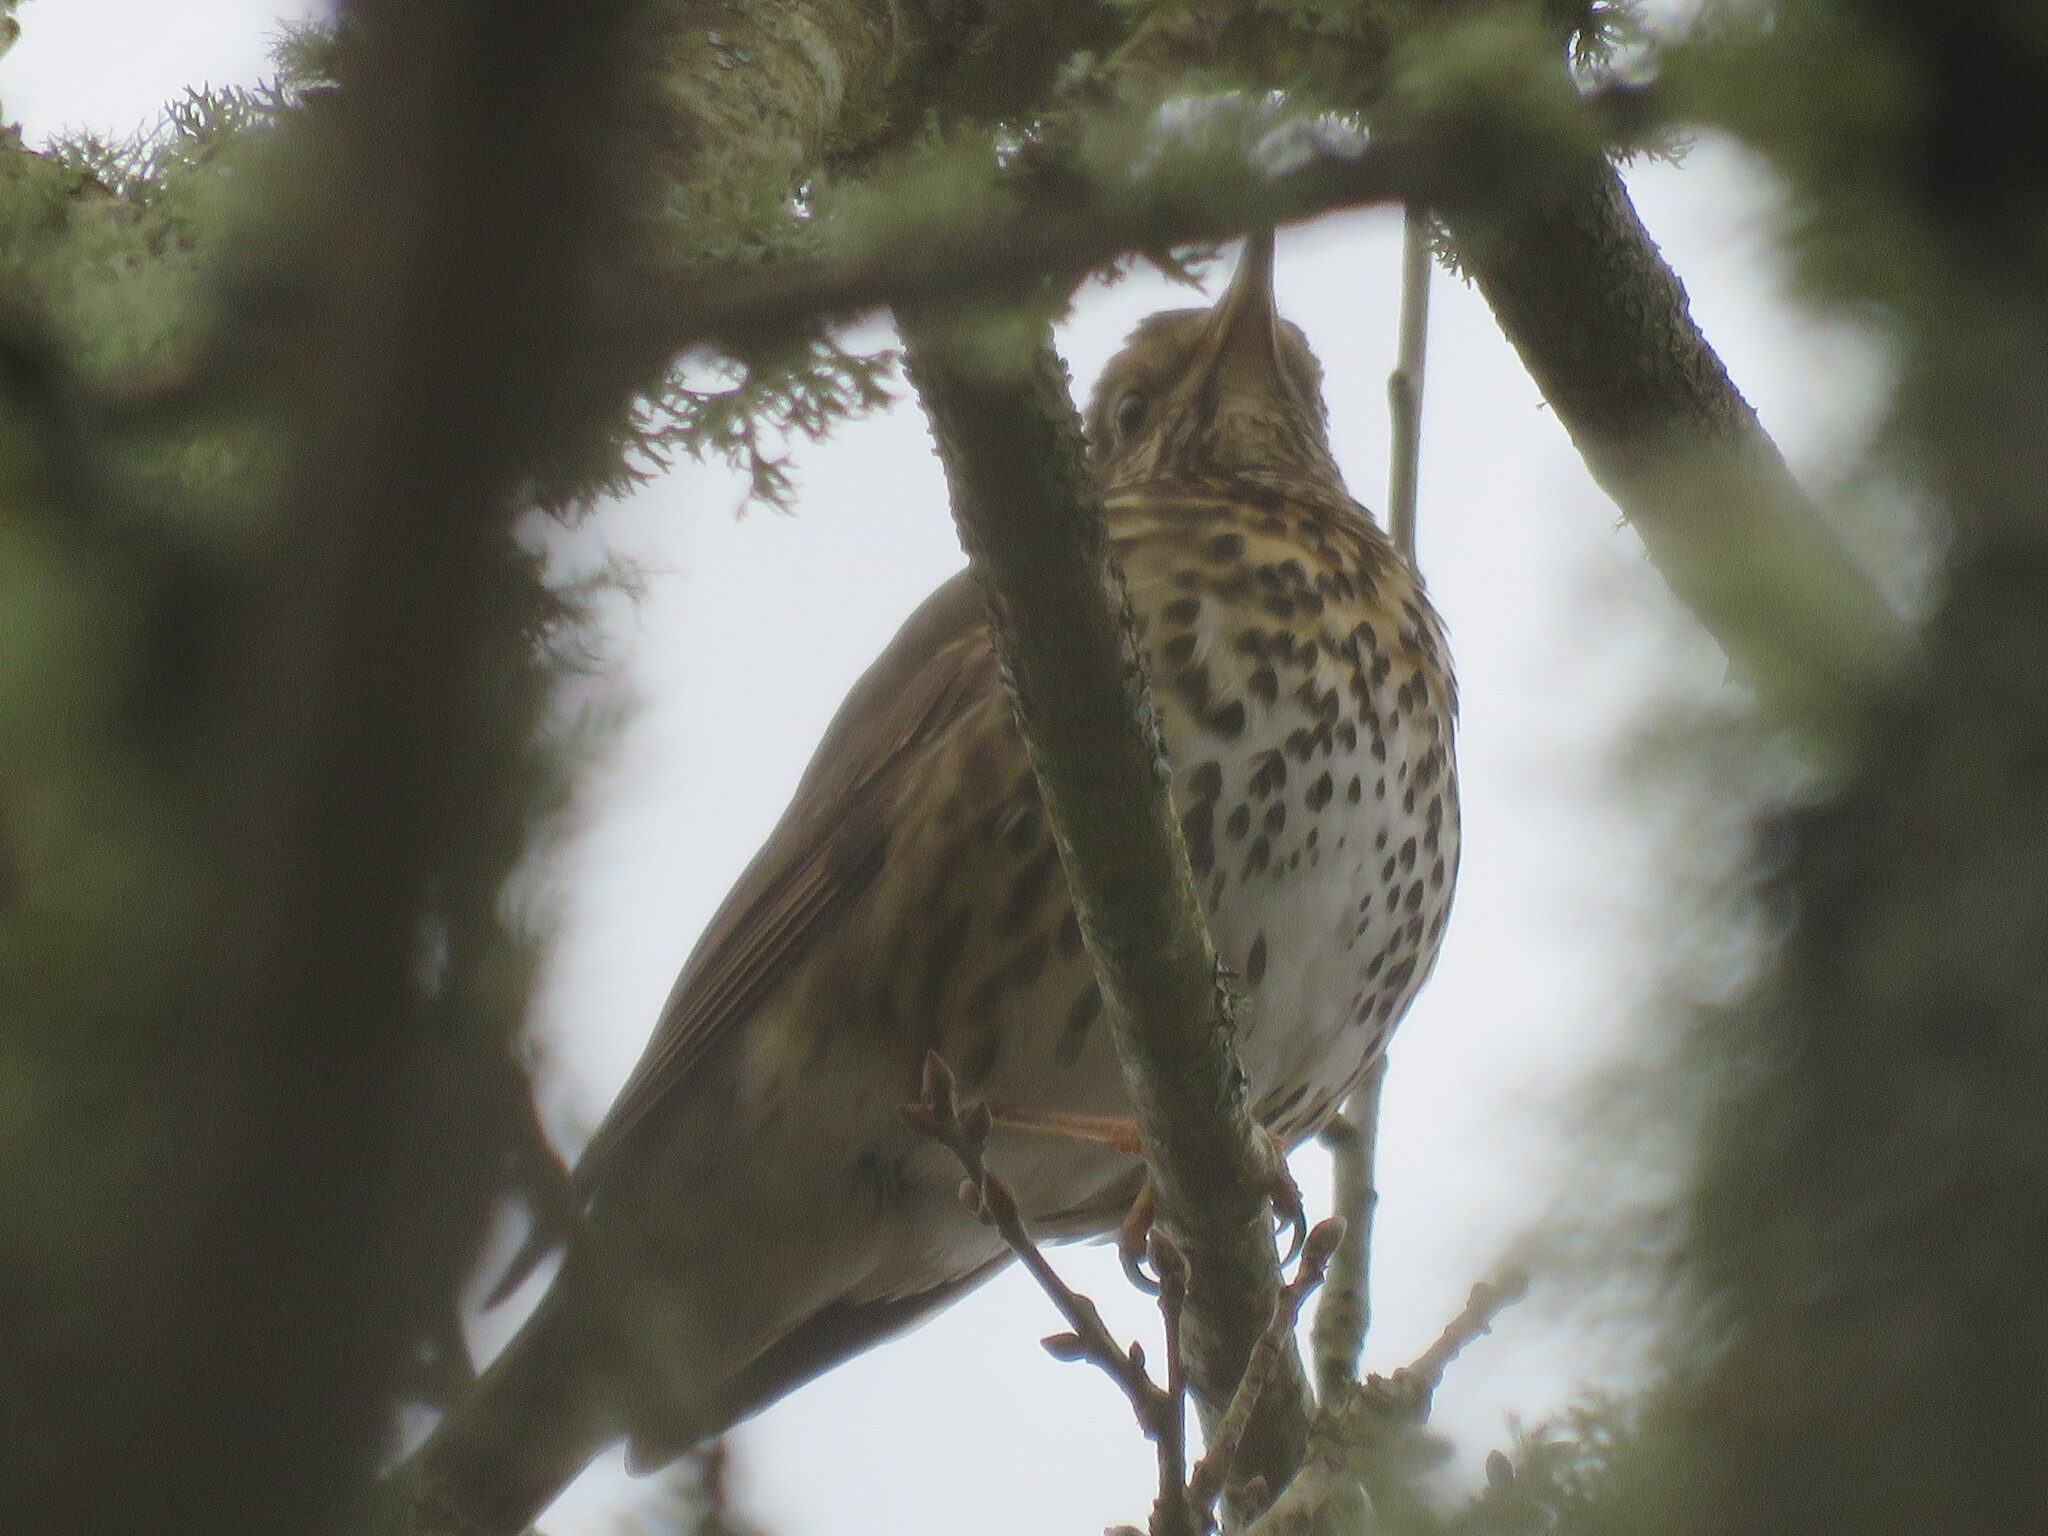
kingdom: Animalia
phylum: Chordata
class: Aves
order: Passeriformes
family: Turdidae
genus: Turdus
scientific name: Turdus philomelos
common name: Song thrush
